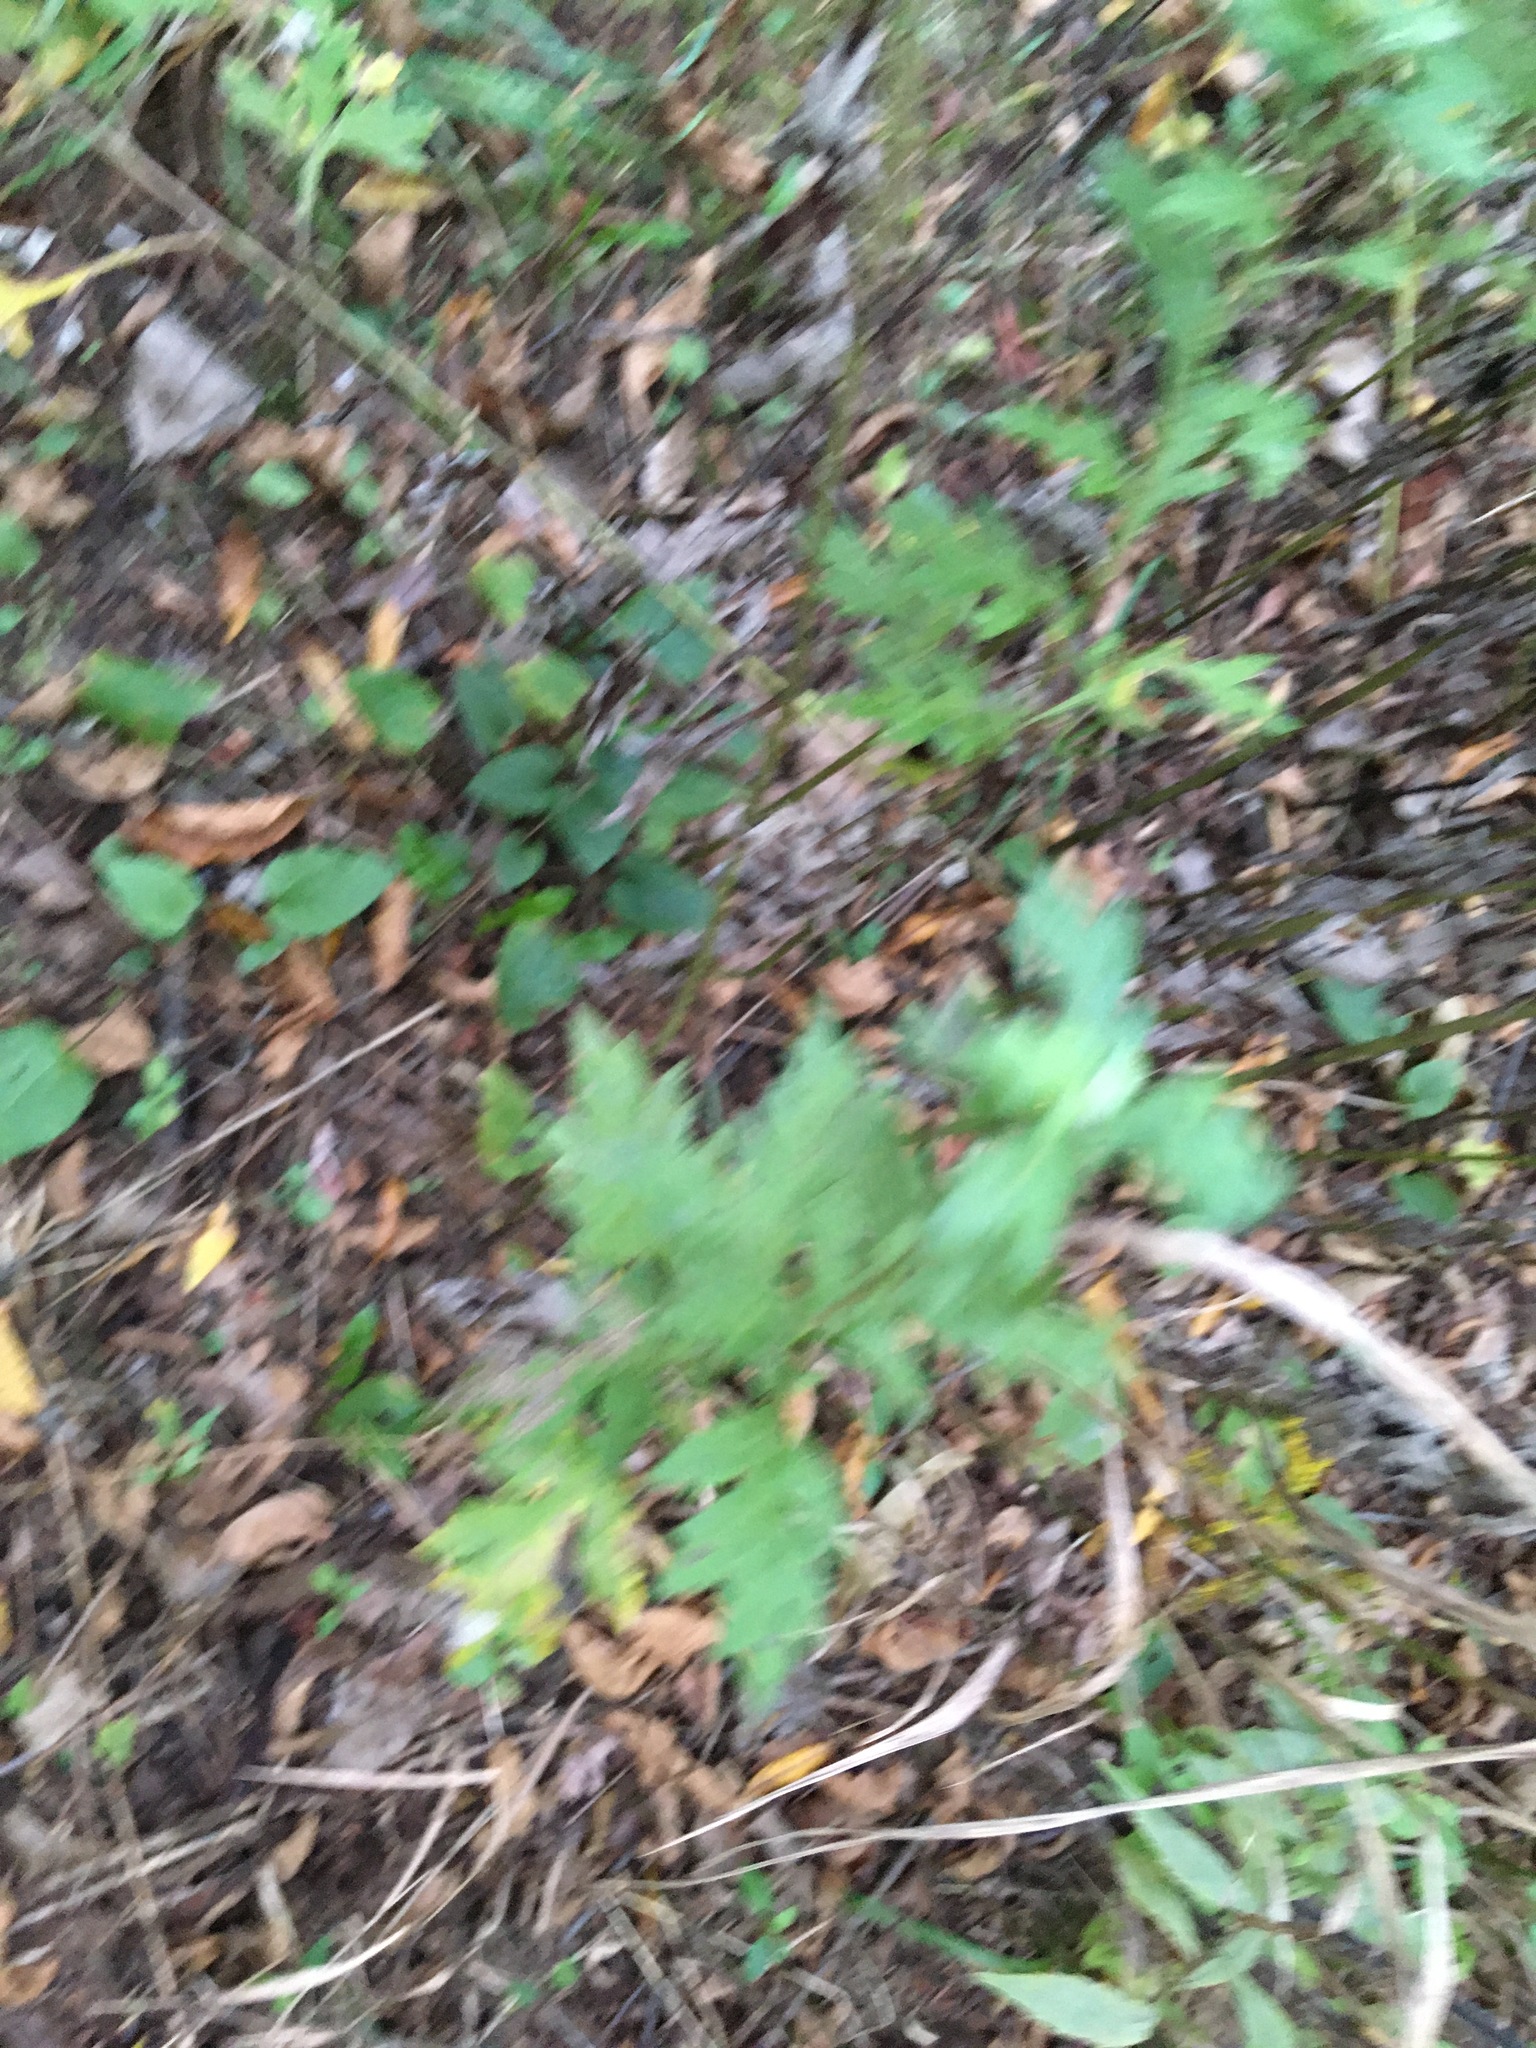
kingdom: Plantae
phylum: Tracheophyta
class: Magnoliopsida
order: Asterales
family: Asteraceae
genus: Artemisia
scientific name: Artemisia vulgaris
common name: Mugwort
